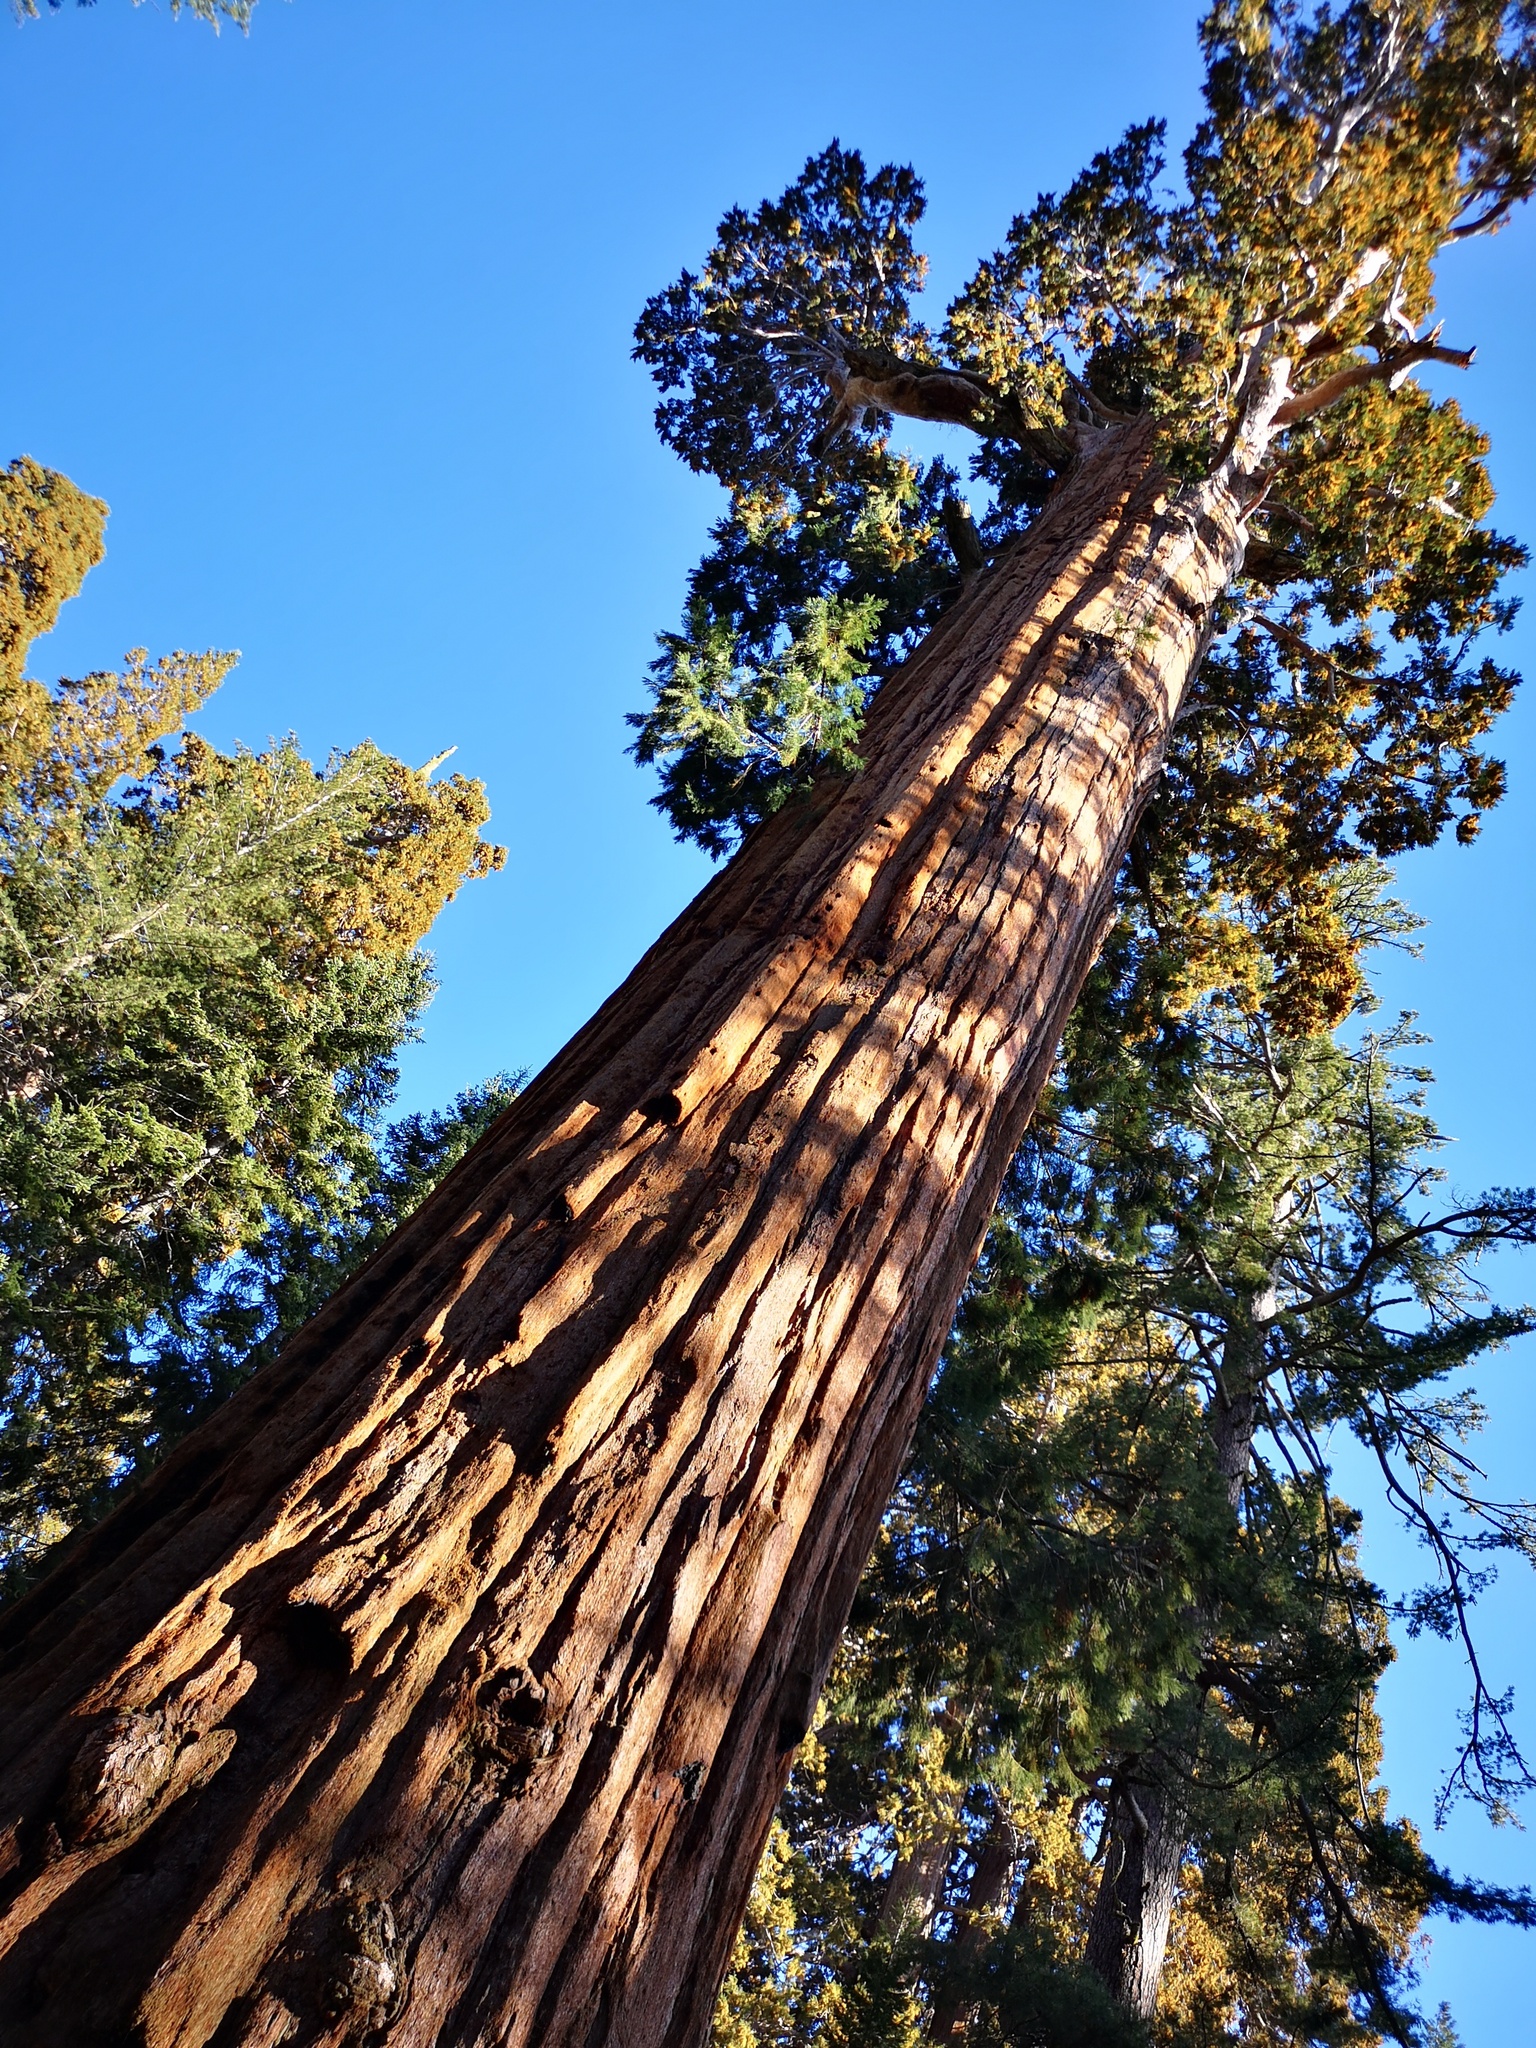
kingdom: Plantae
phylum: Tracheophyta
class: Pinopsida
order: Pinales
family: Cupressaceae
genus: Sequoiadendron
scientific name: Sequoiadendron giganteum
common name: Wellingtonia
